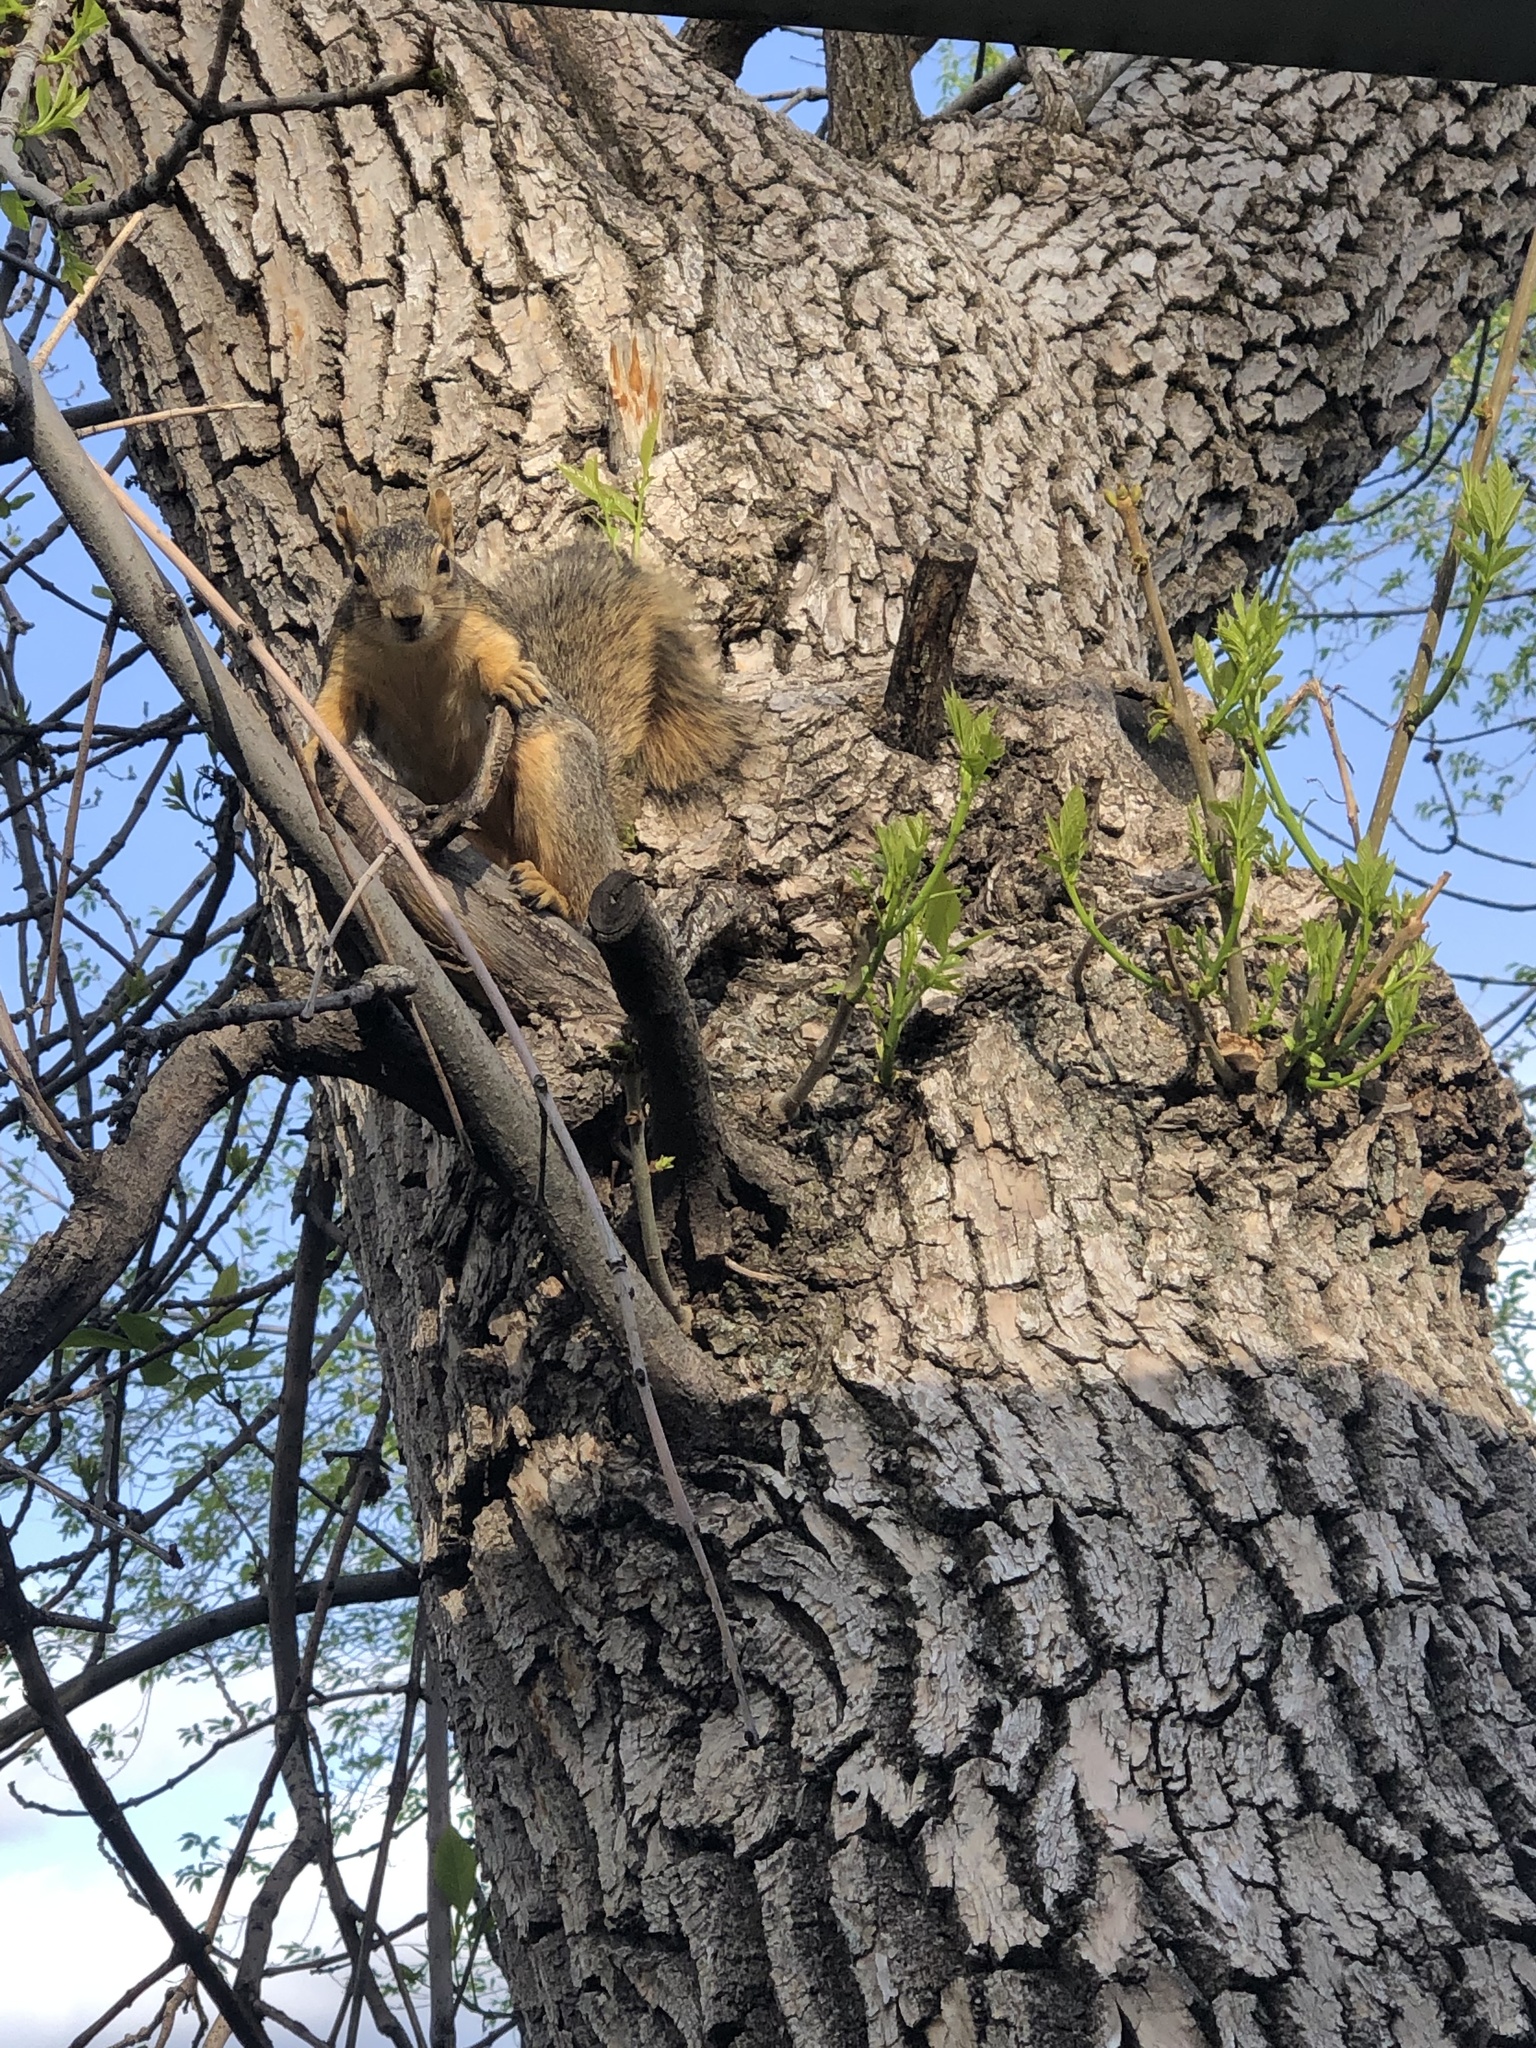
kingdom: Animalia
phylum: Chordata
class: Mammalia
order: Rodentia
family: Sciuridae
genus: Sciurus
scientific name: Sciurus niger
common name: Fox squirrel
